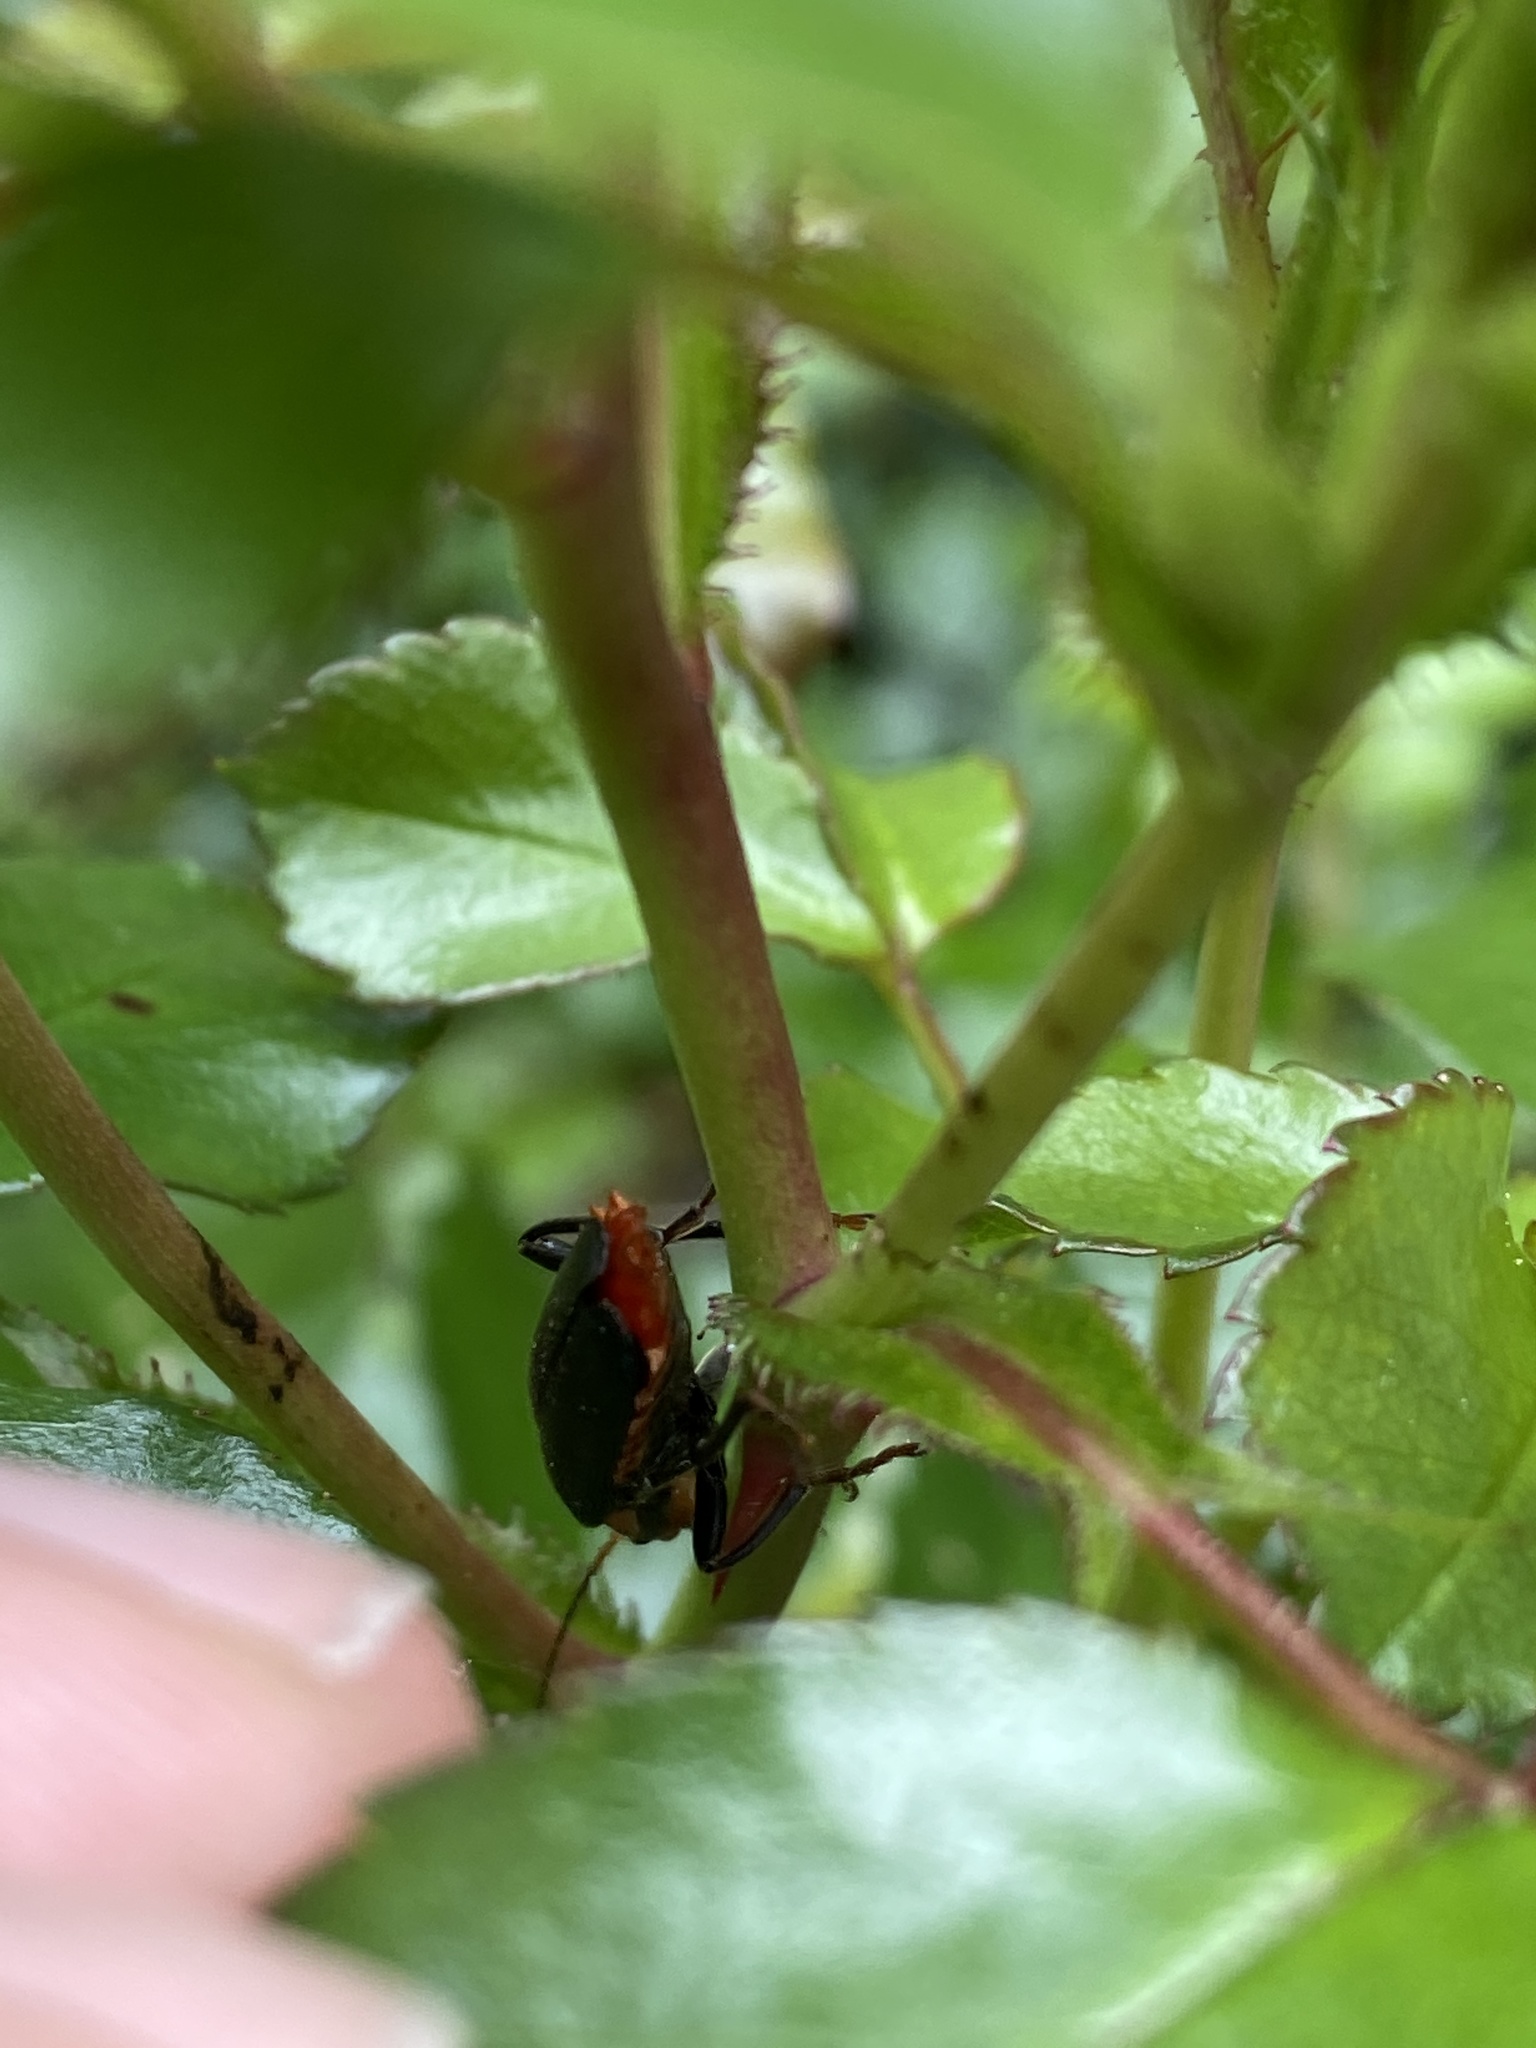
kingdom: Animalia
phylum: Arthropoda
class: Insecta
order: Coleoptera
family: Cantharidae
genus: Cantharis
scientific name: Cantharis fusca
